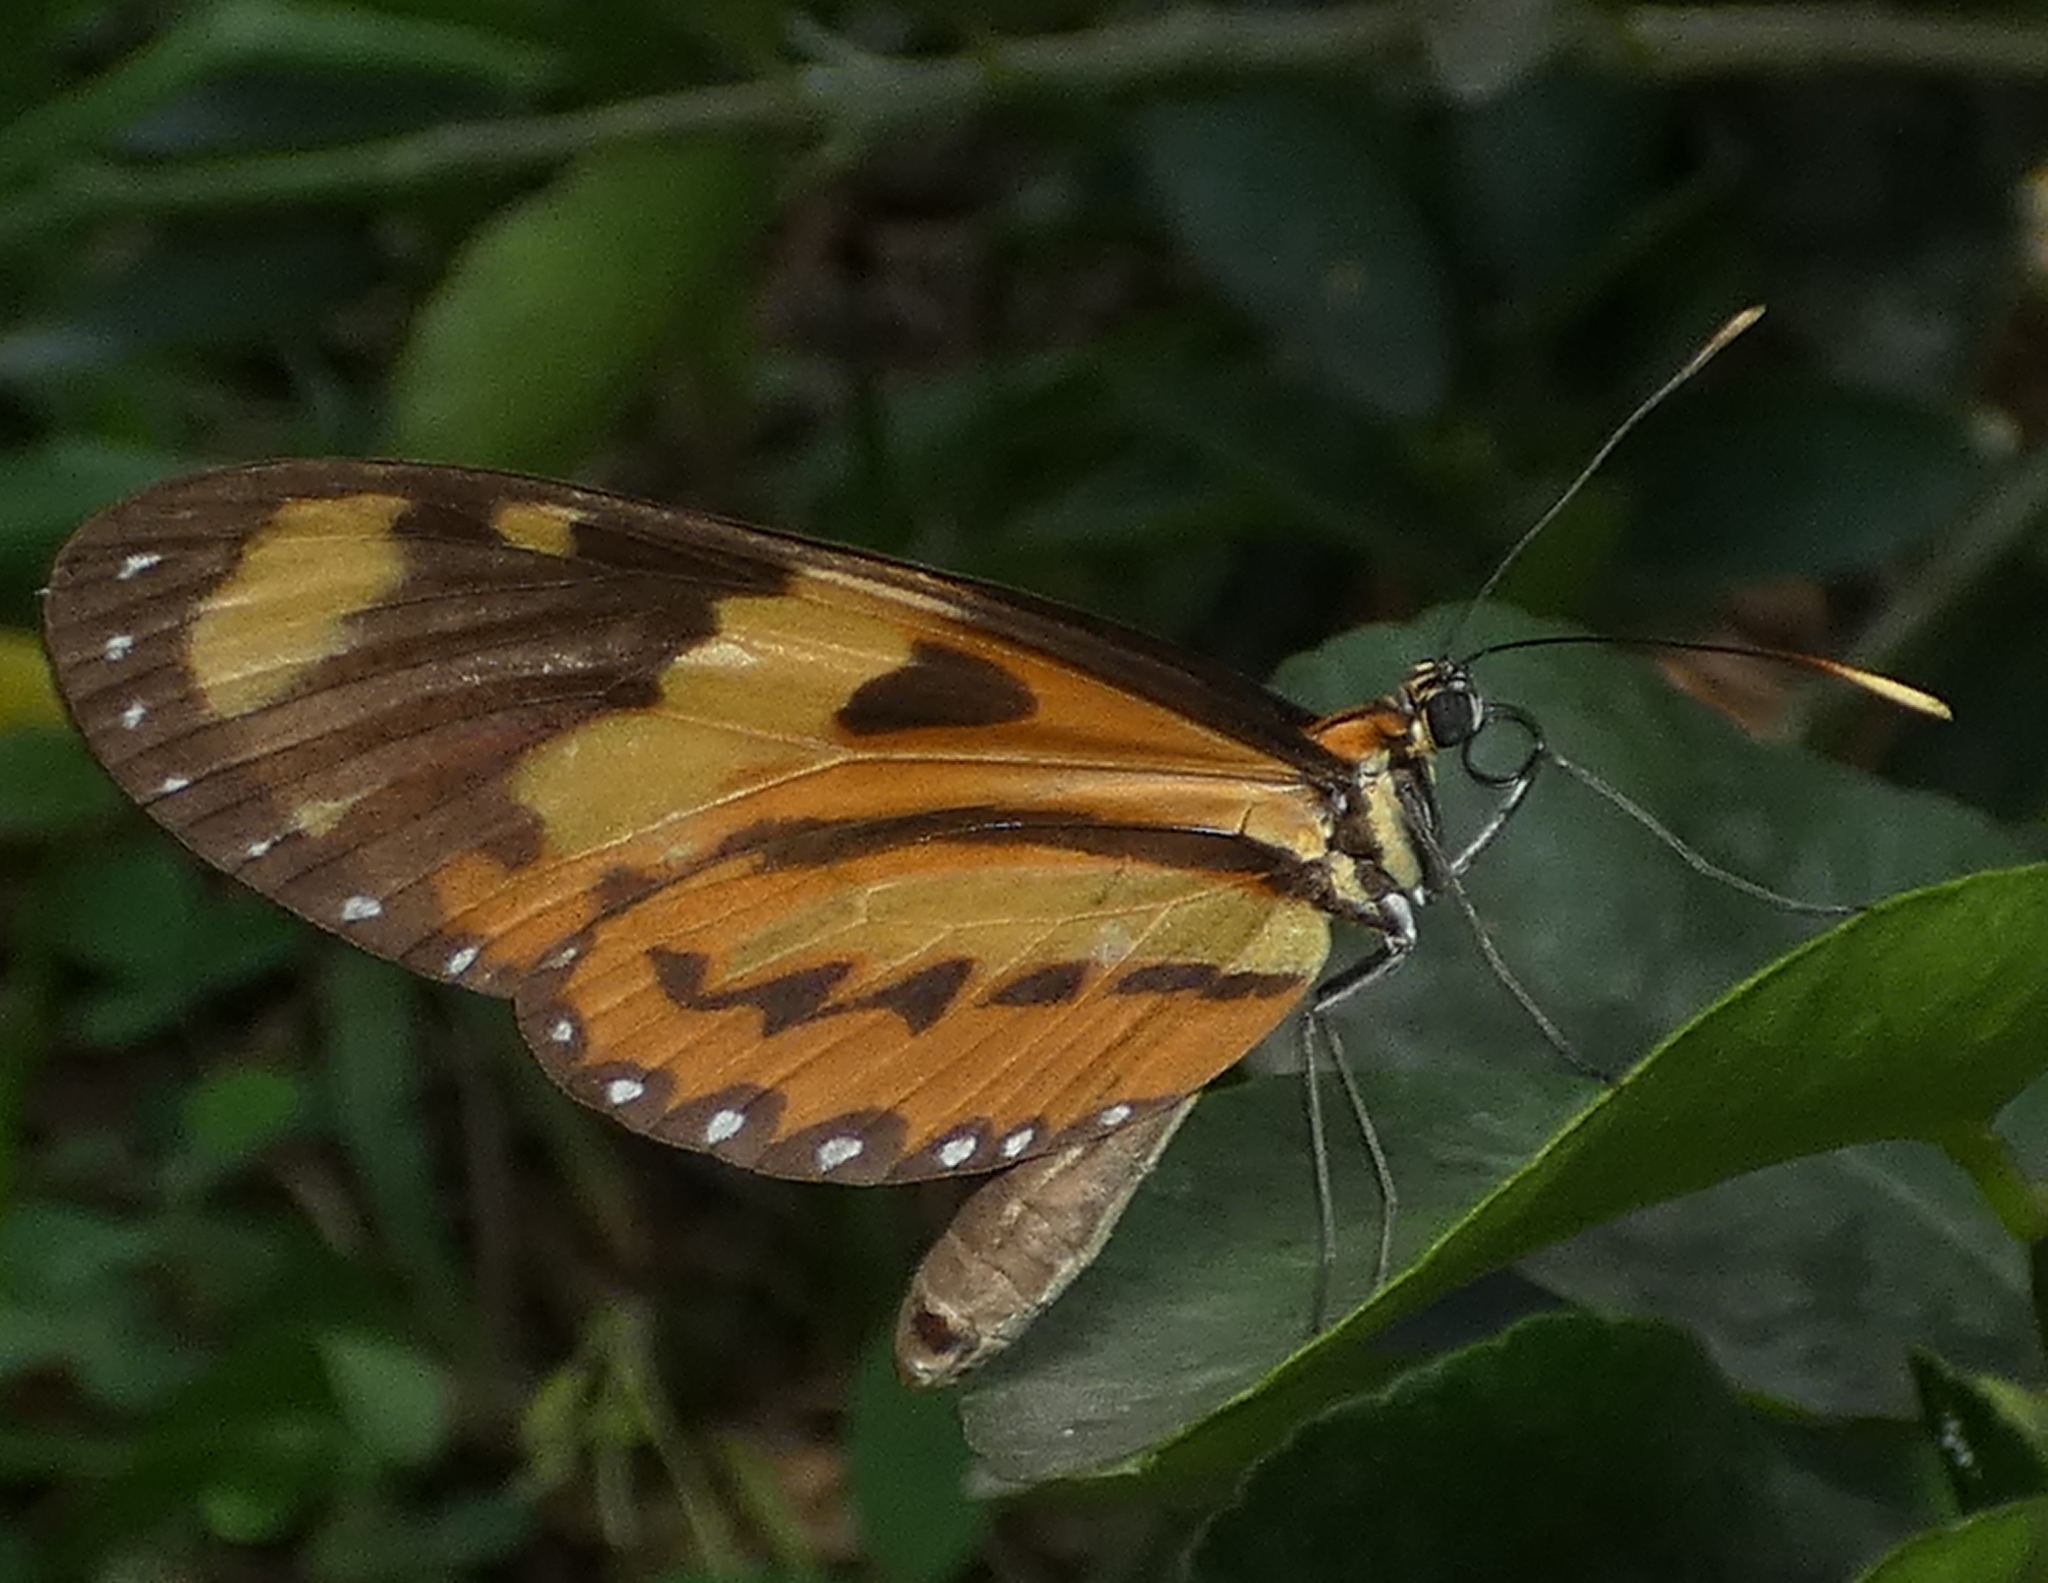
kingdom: Animalia
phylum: Arthropoda
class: Insecta
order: Lepidoptera
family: Nymphalidae
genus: Mechanitis
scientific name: Mechanitis lysimnia
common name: Lysimnia tigerwing
